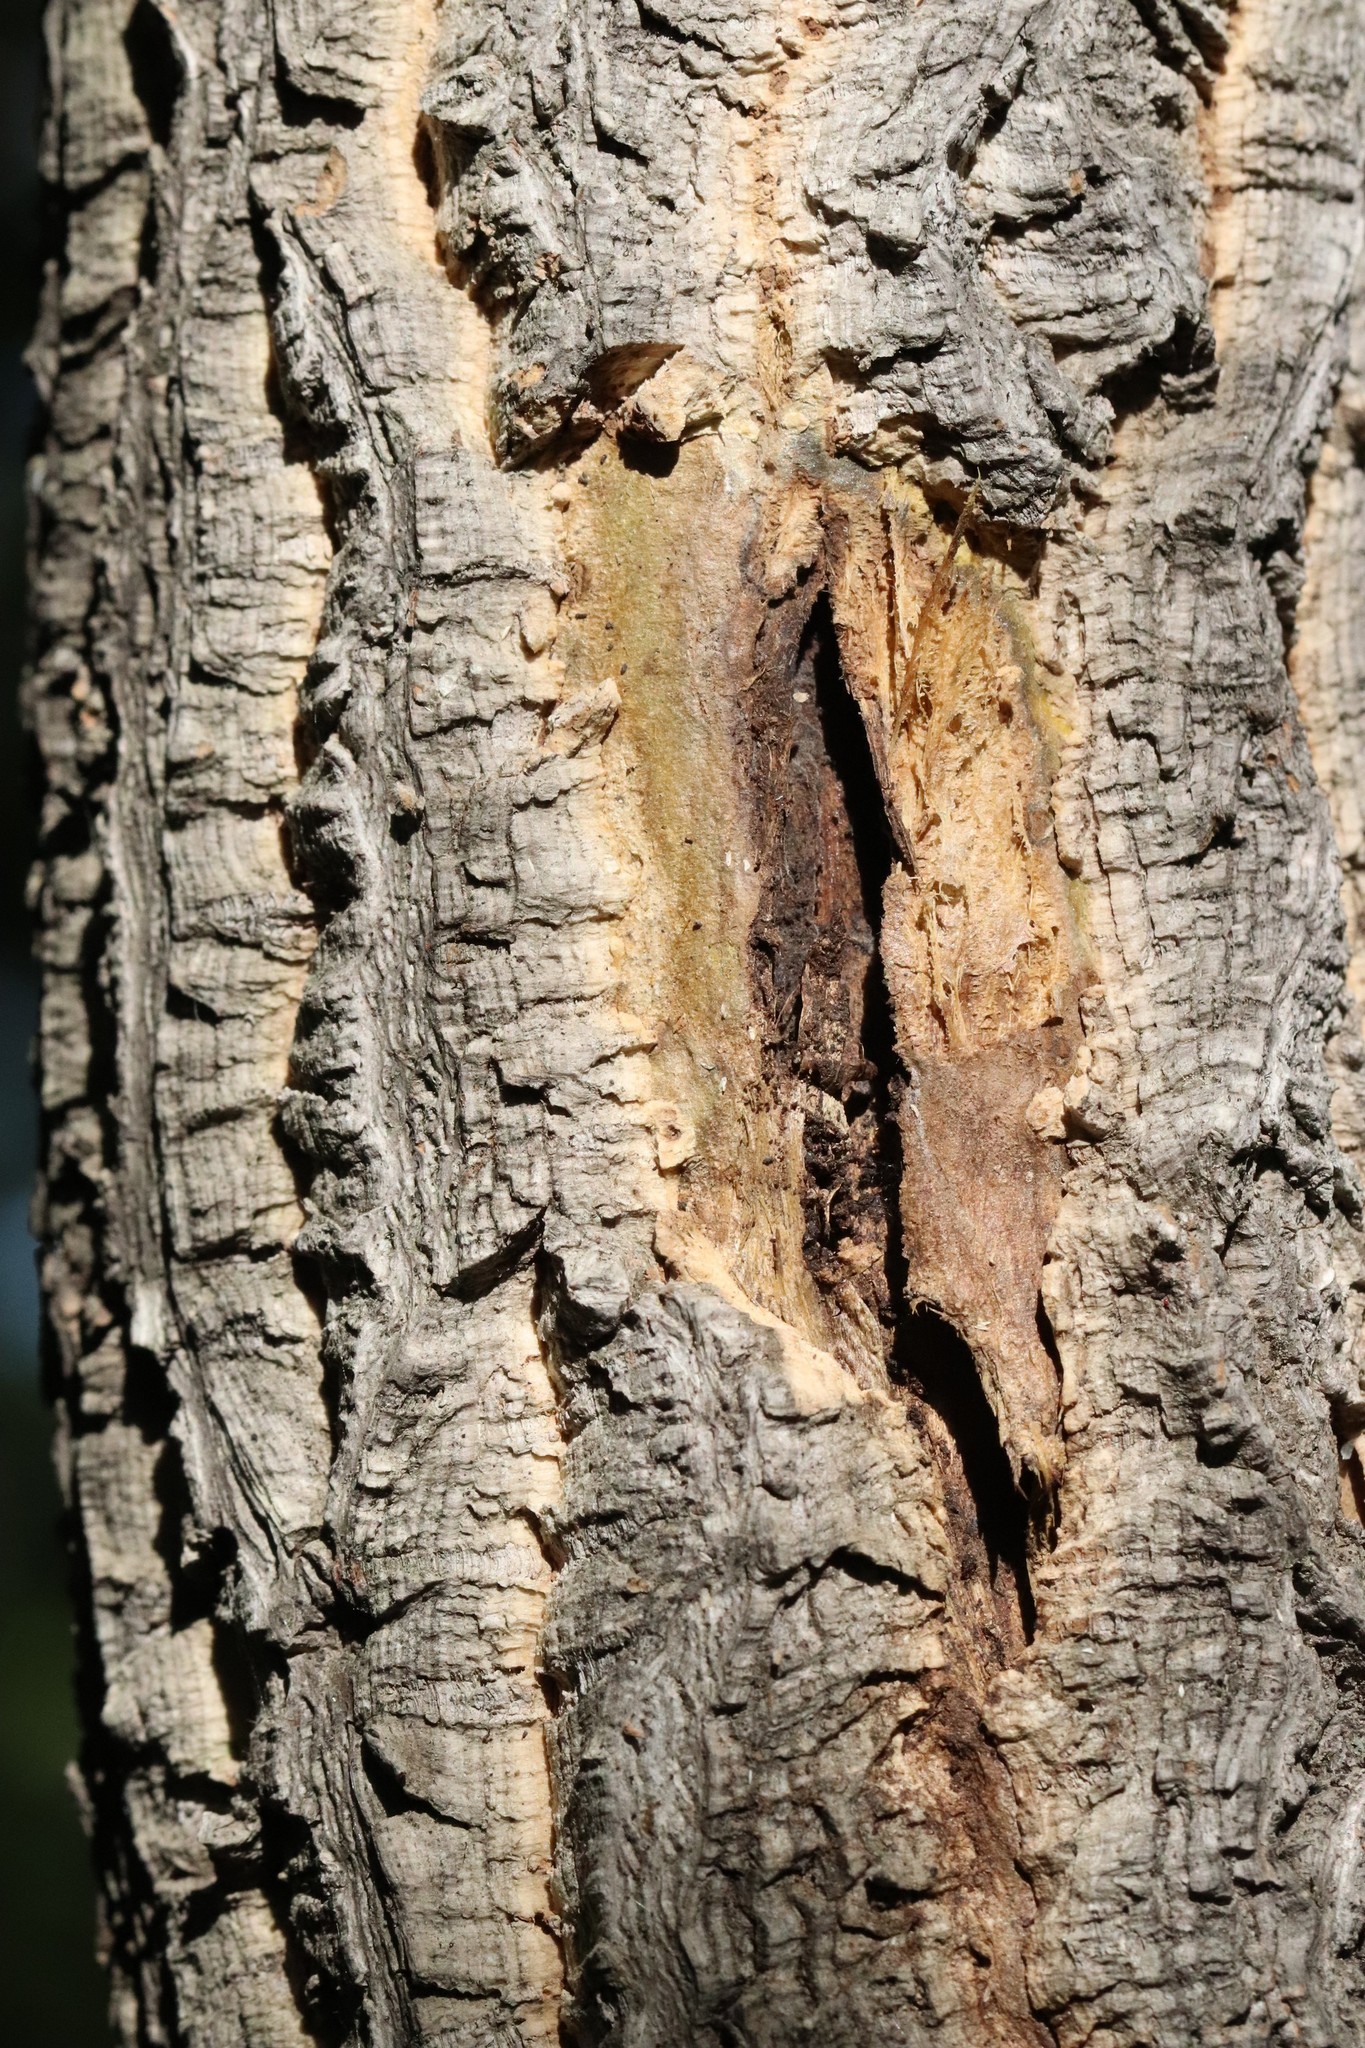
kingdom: Plantae
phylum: Tracheophyta
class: Magnoliopsida
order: Sapindales
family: Rutaceae
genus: Phellodendron
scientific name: Phellodendron amurense
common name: Amur corktree
